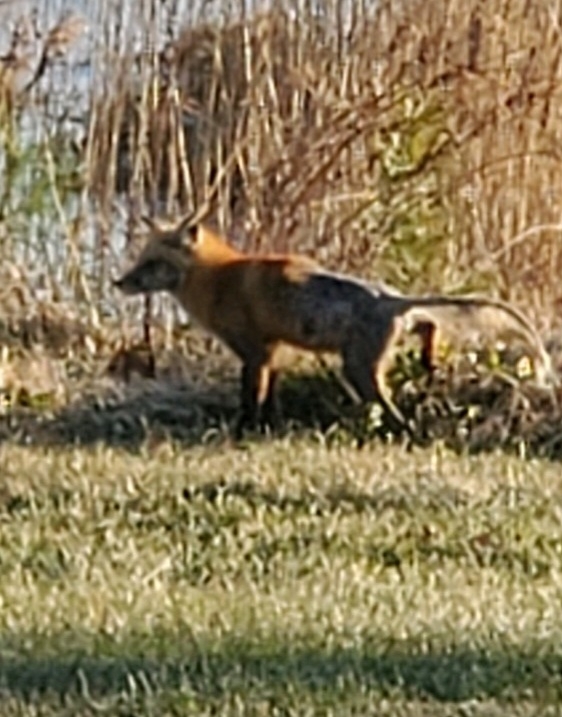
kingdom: Animalia
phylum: Chordata
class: Mammalia
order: Carnivora
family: Canidae
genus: Vulpes
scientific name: Vulpes vulpes
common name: Red fox
